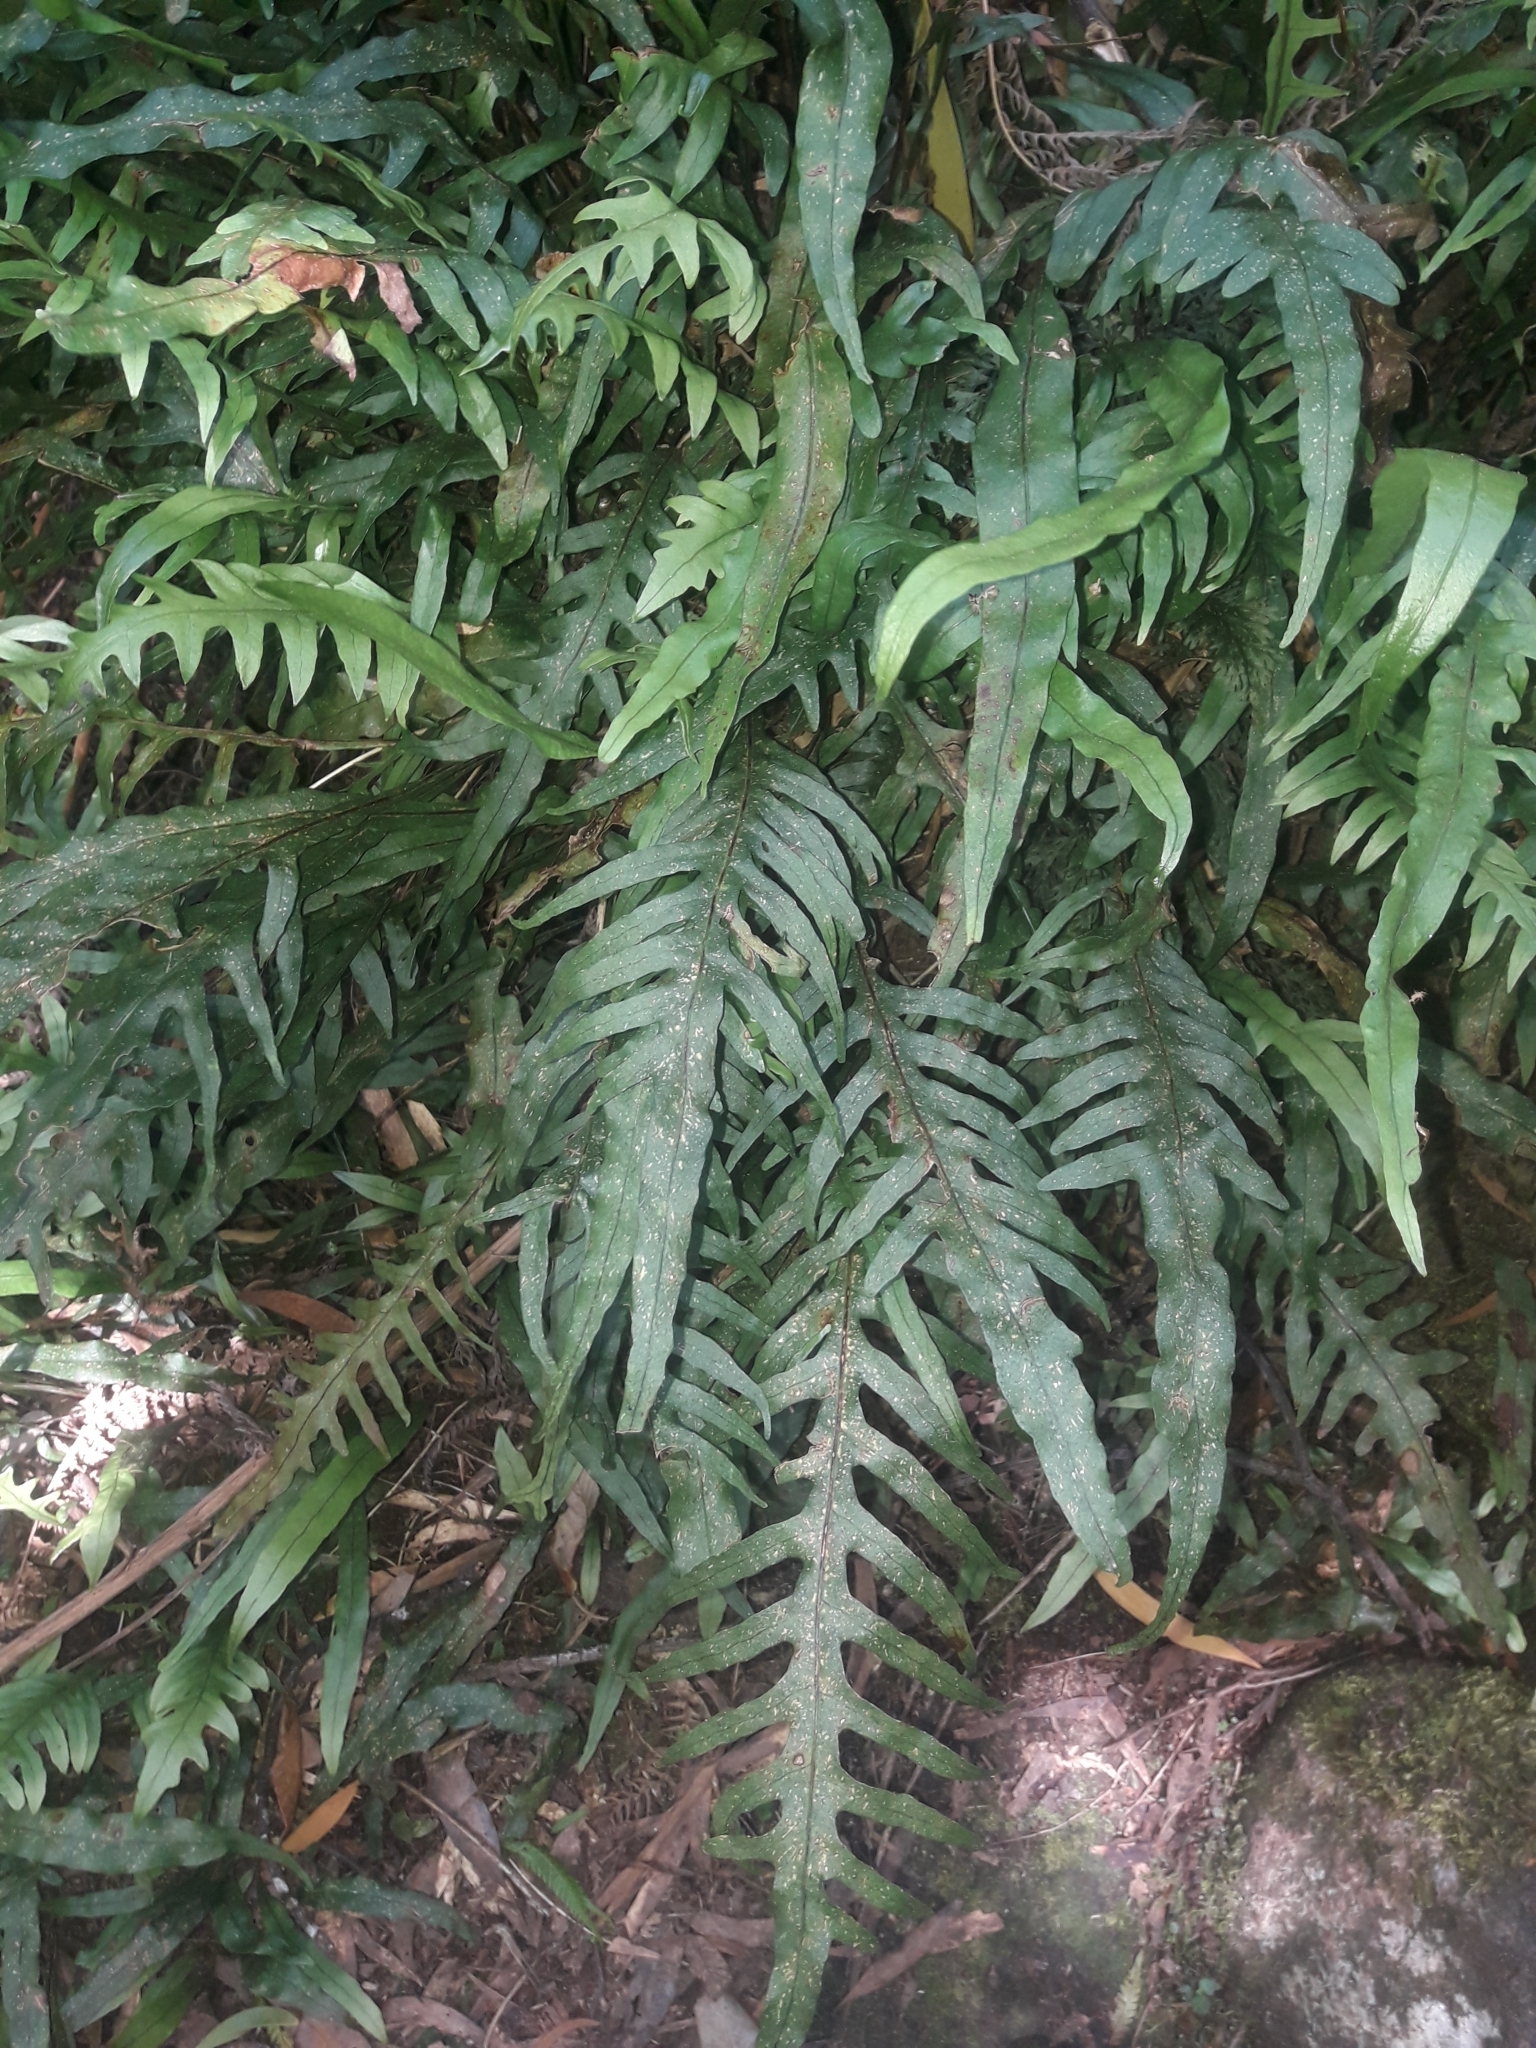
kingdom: Plantae
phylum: Tracheophyta
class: Polypodiopsida
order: Polypodiales
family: Polypodiaceae
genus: Lecanopteris
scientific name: Lecanopteris scandens
